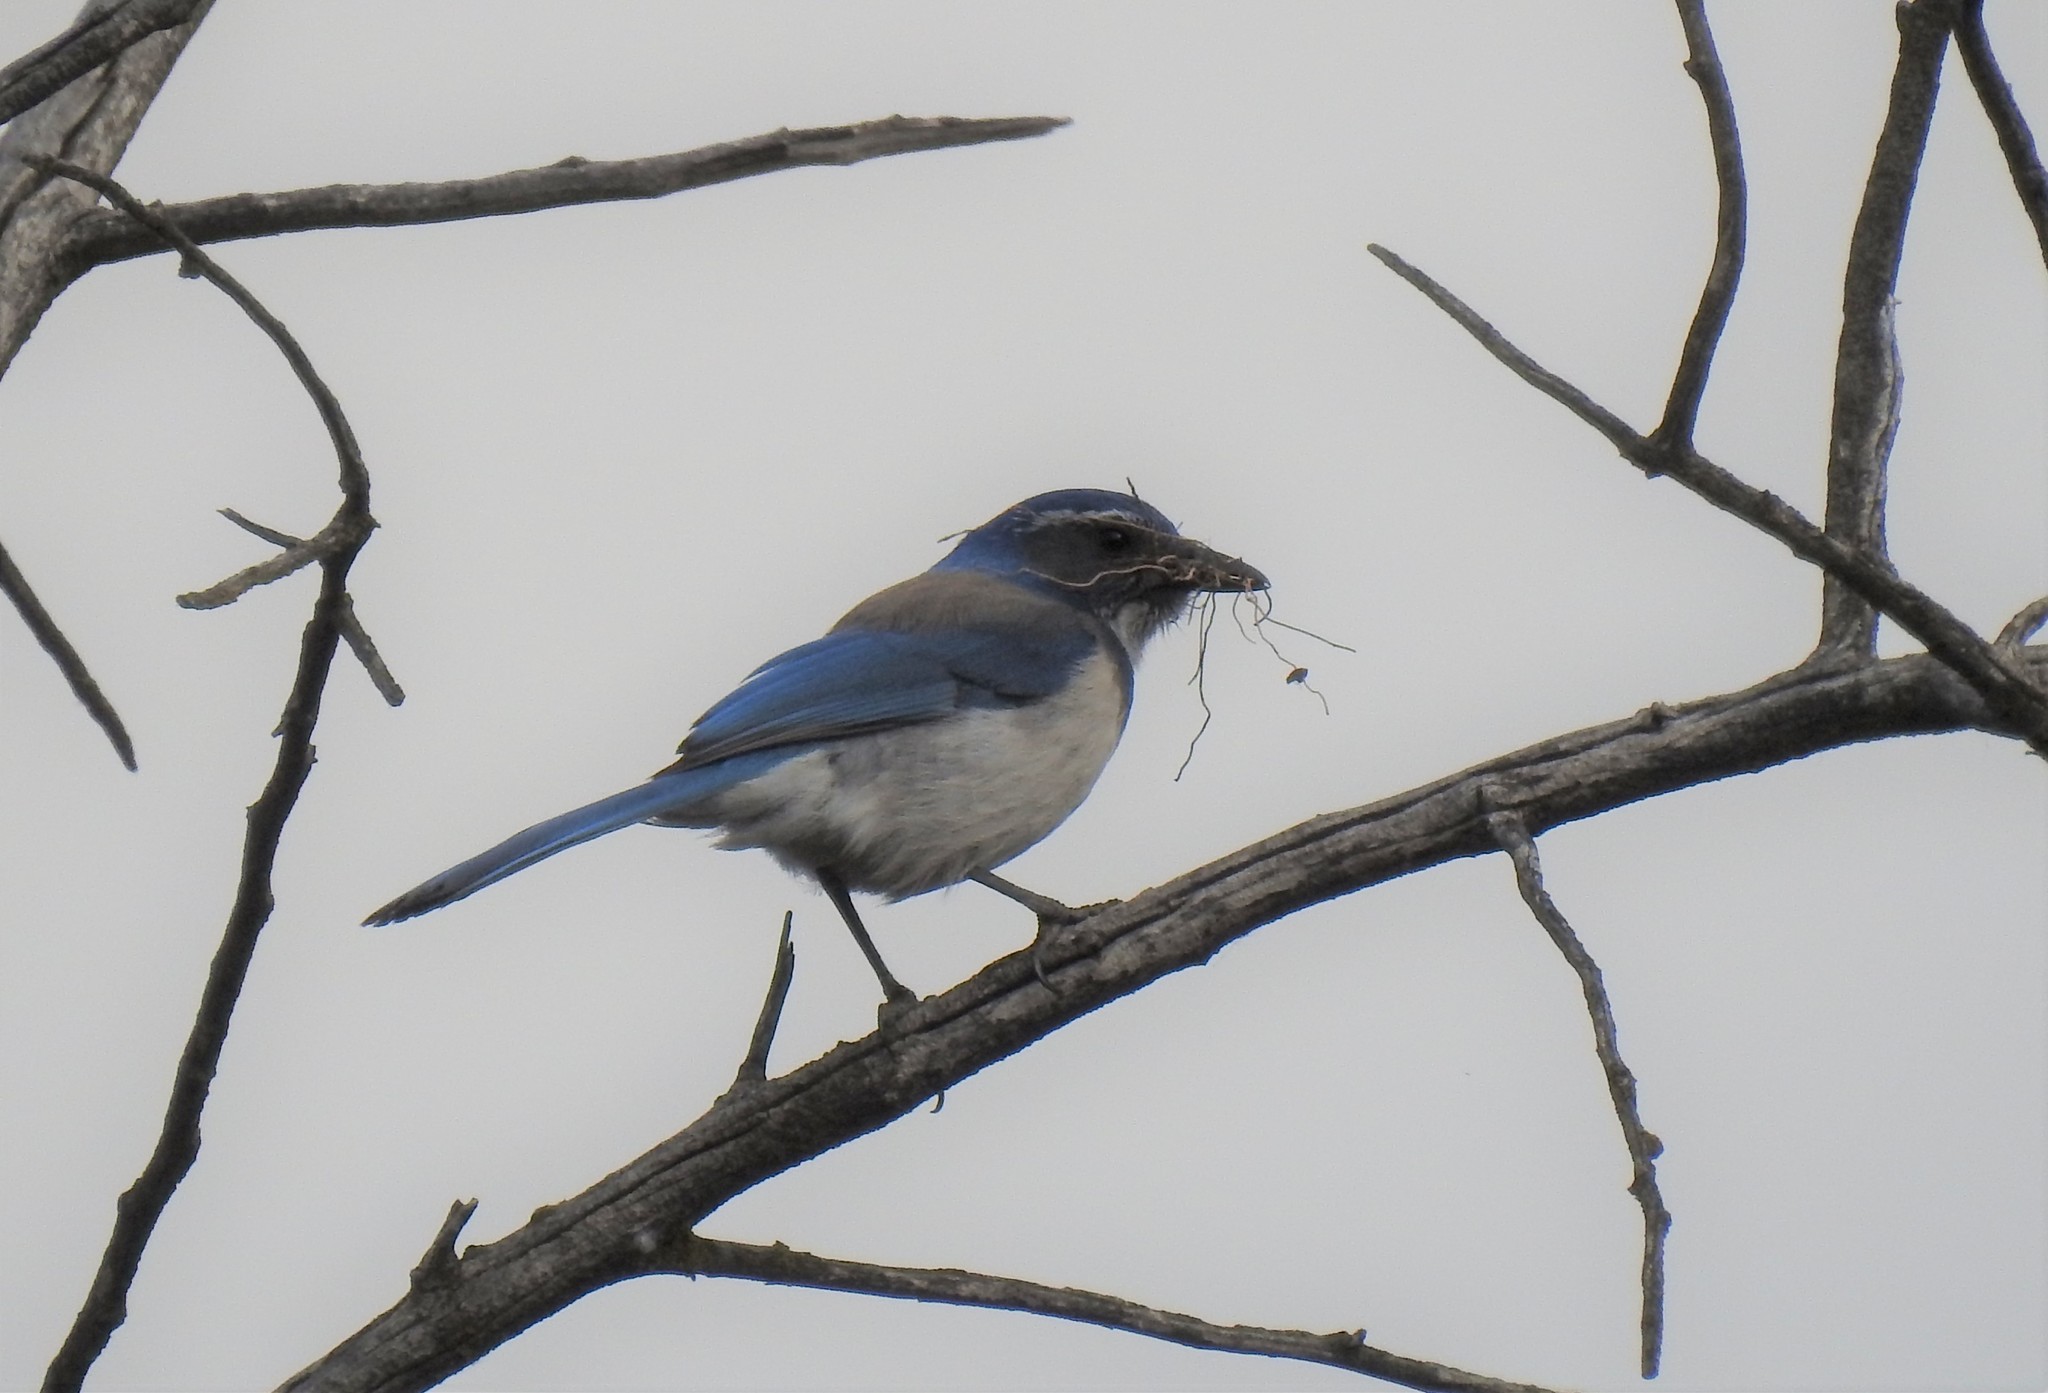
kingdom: Animalia
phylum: Chordata
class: Aves
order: Passeriformes
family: Corvidae
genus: Aphelocoma
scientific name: Aphelocoma californica
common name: California scrub-jay
